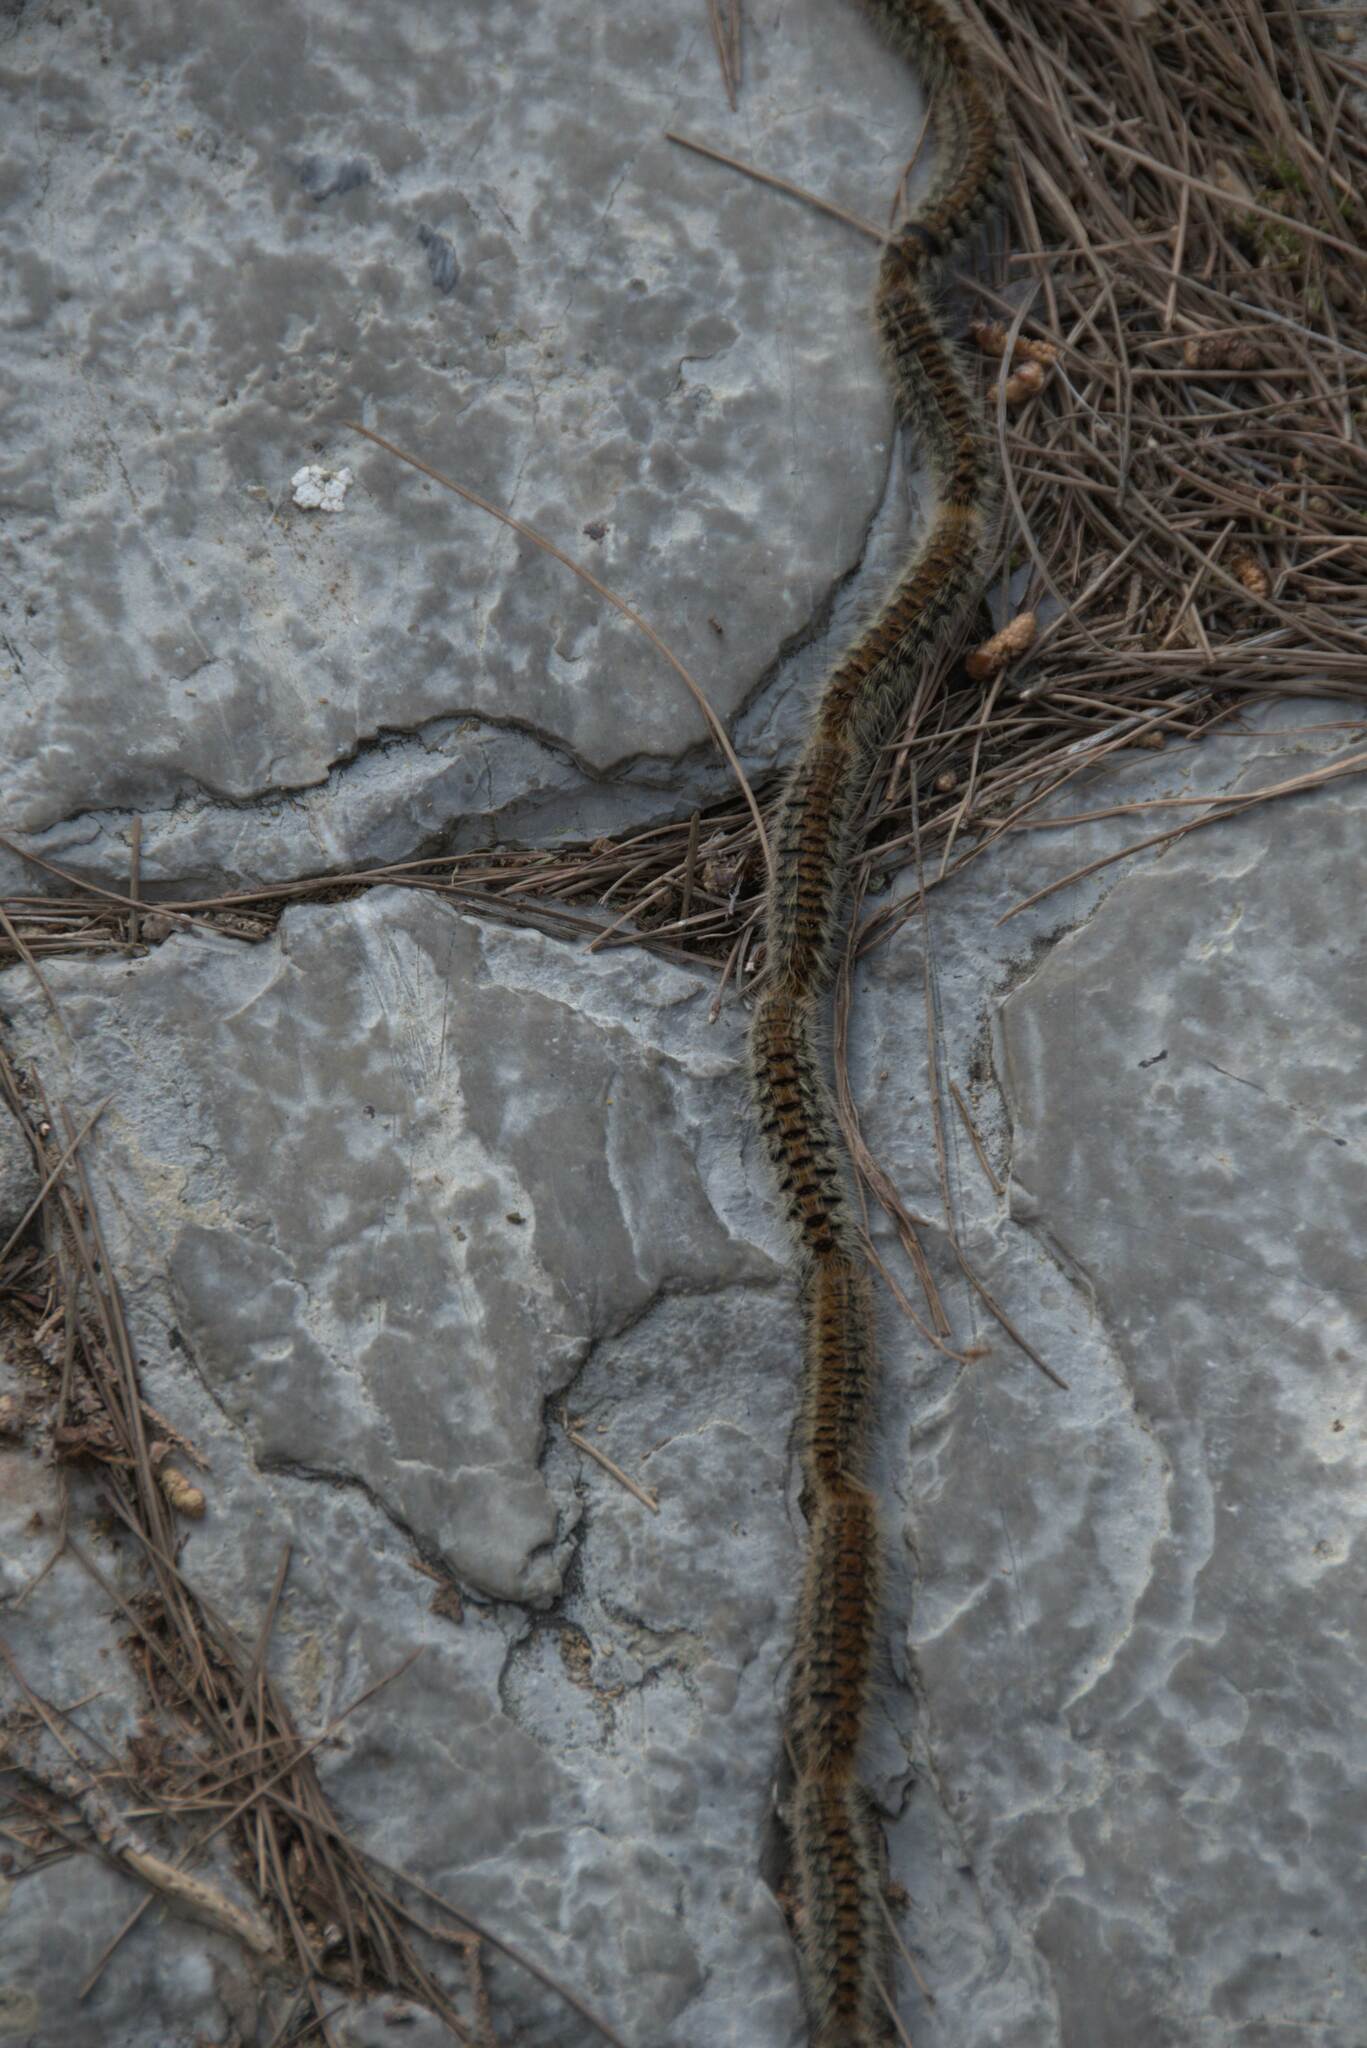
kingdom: Animalia
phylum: Arthropoda
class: Insecta
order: Lepidoptera
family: Notodontidae
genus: Thaumetopoea
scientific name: Thaumetopoea
